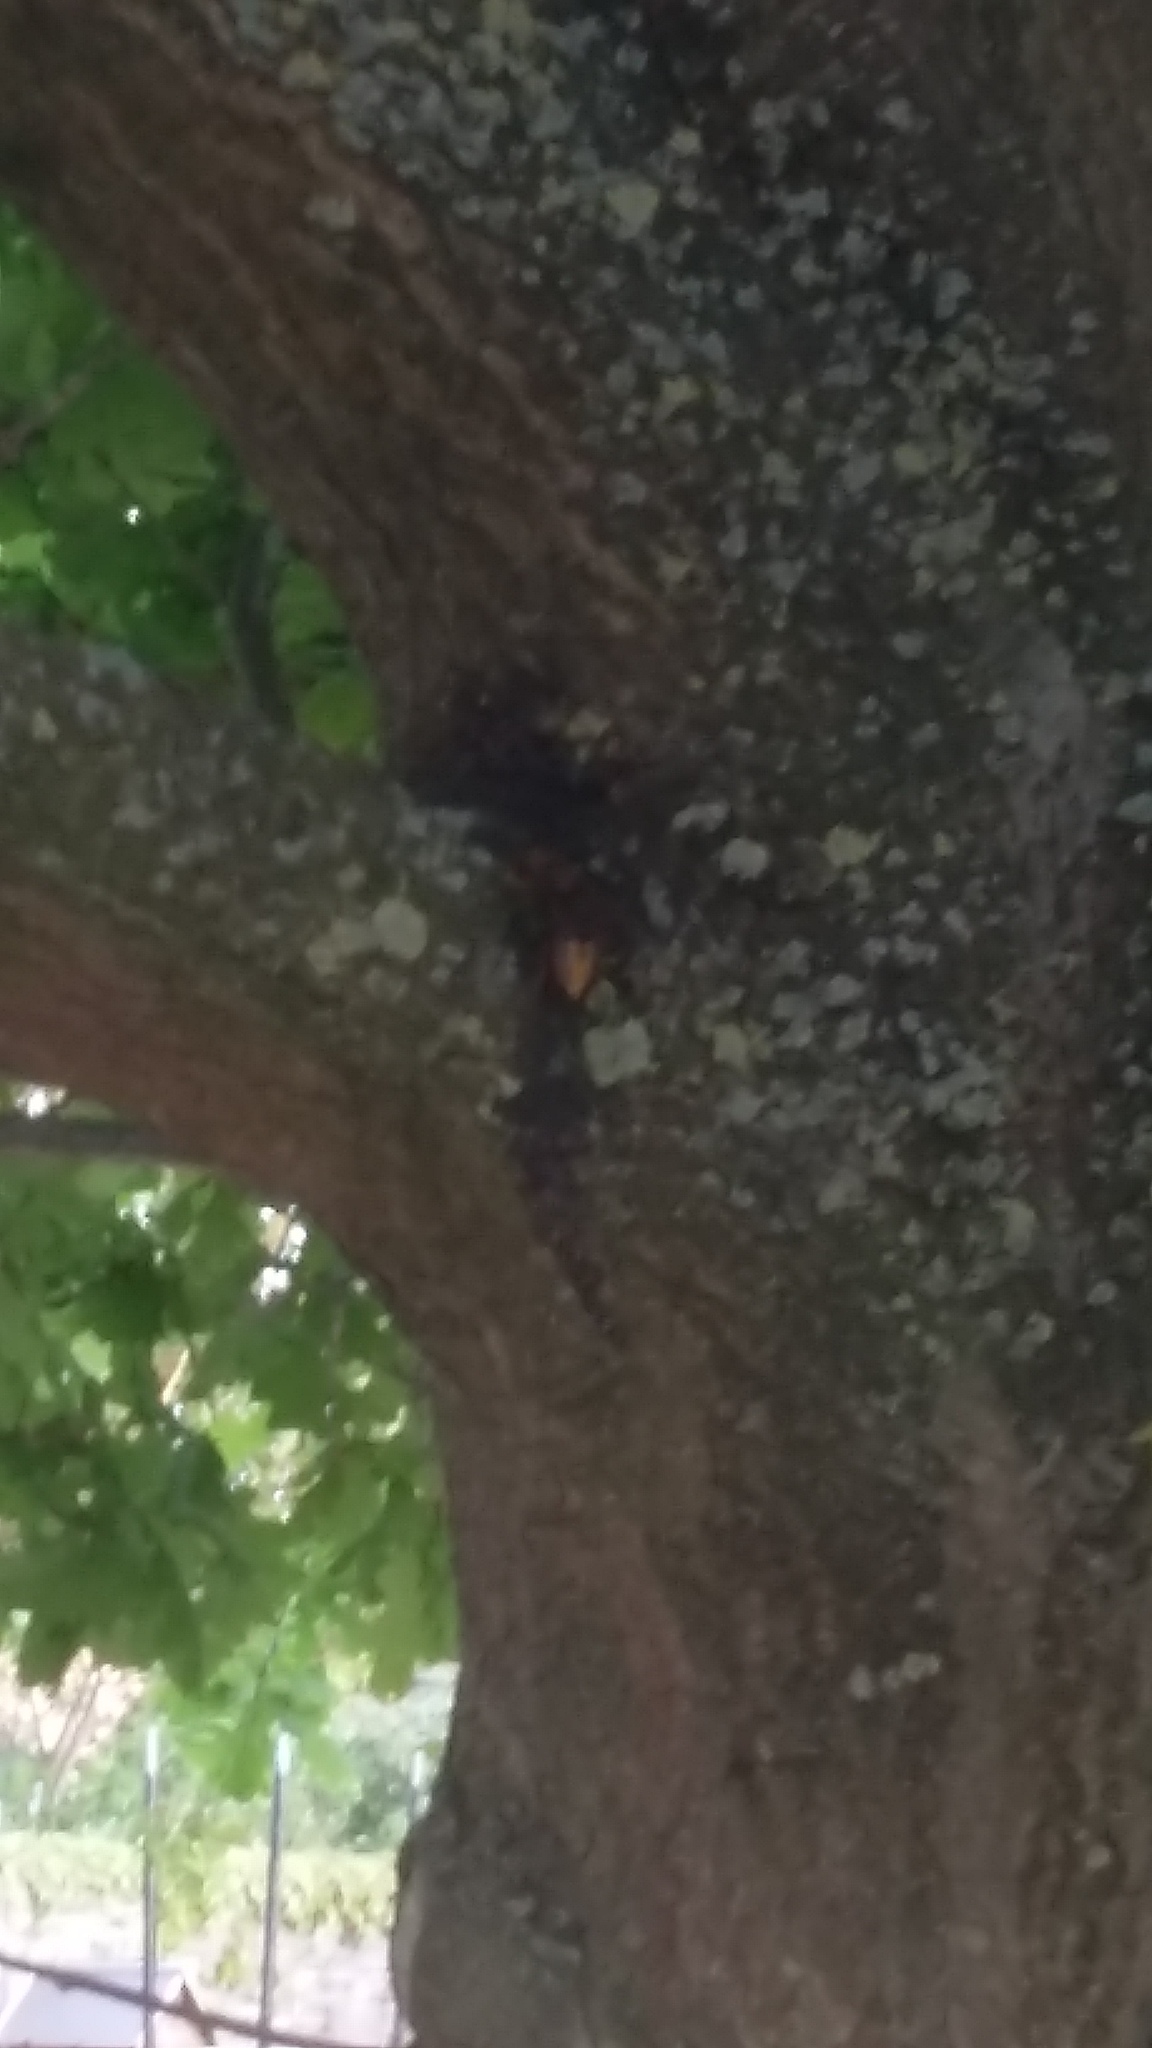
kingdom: Animalia
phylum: Arthropoda
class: Insecta
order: Hymenoptera
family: Vespidae
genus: Vespa
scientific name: Vespa crabro
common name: Hornet
